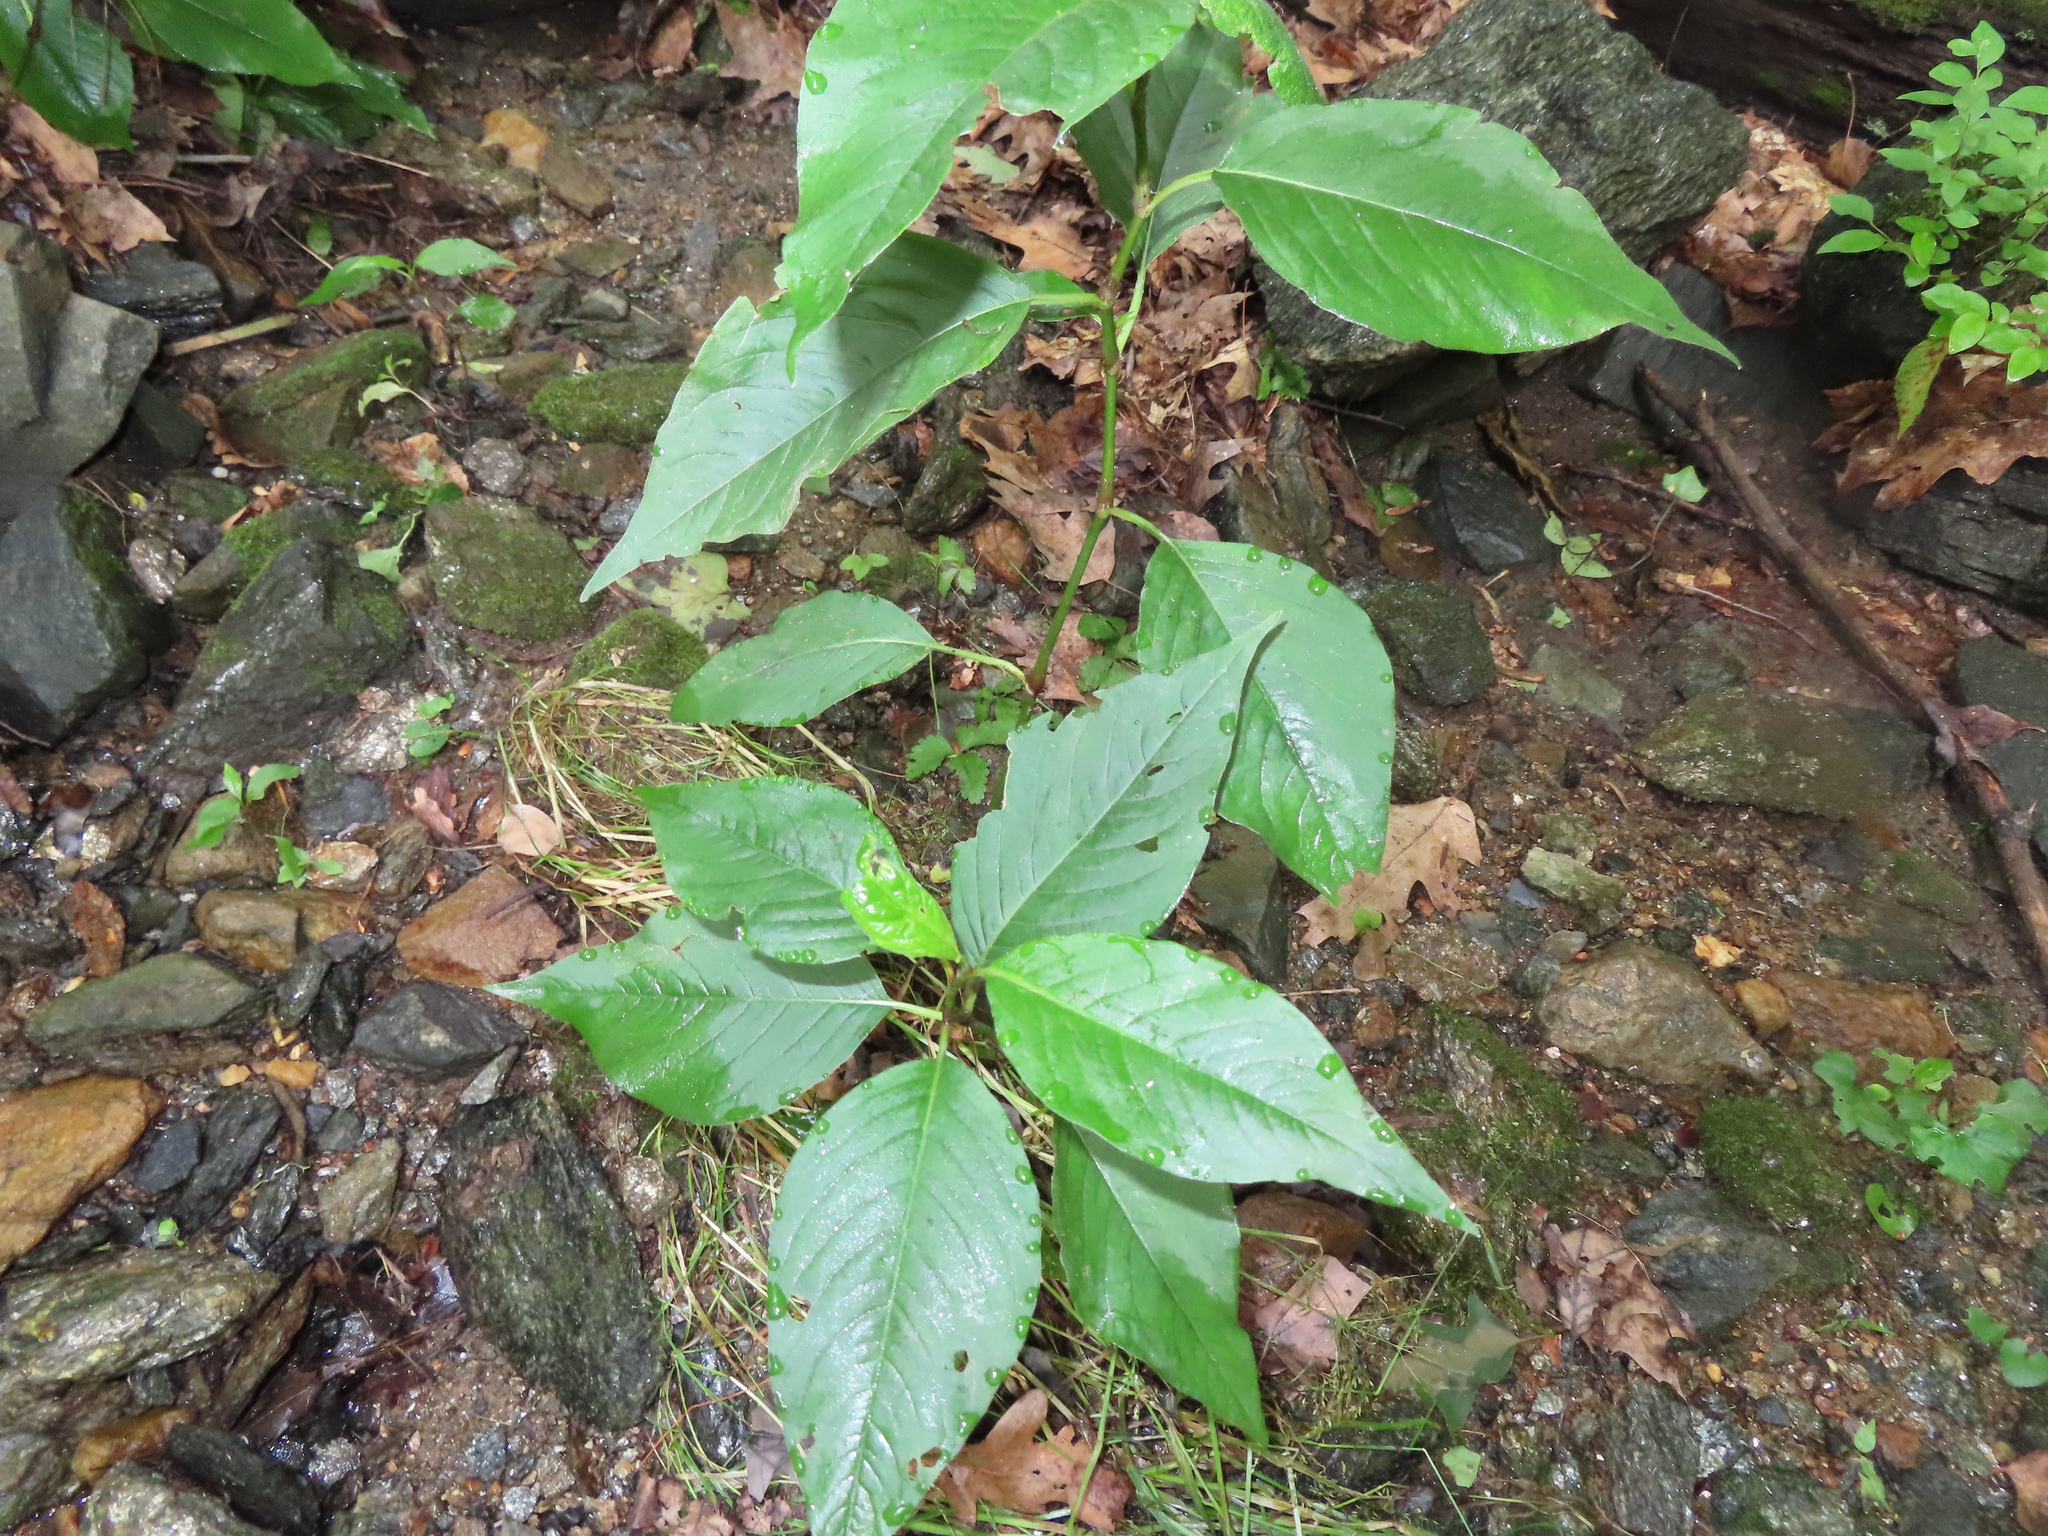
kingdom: Plantae
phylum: Tracheophyta
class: Magnoliopsida
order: Caryophyllales
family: Polygonaceae
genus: Persicaria
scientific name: Persicaria virginiana
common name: Jumpseed
